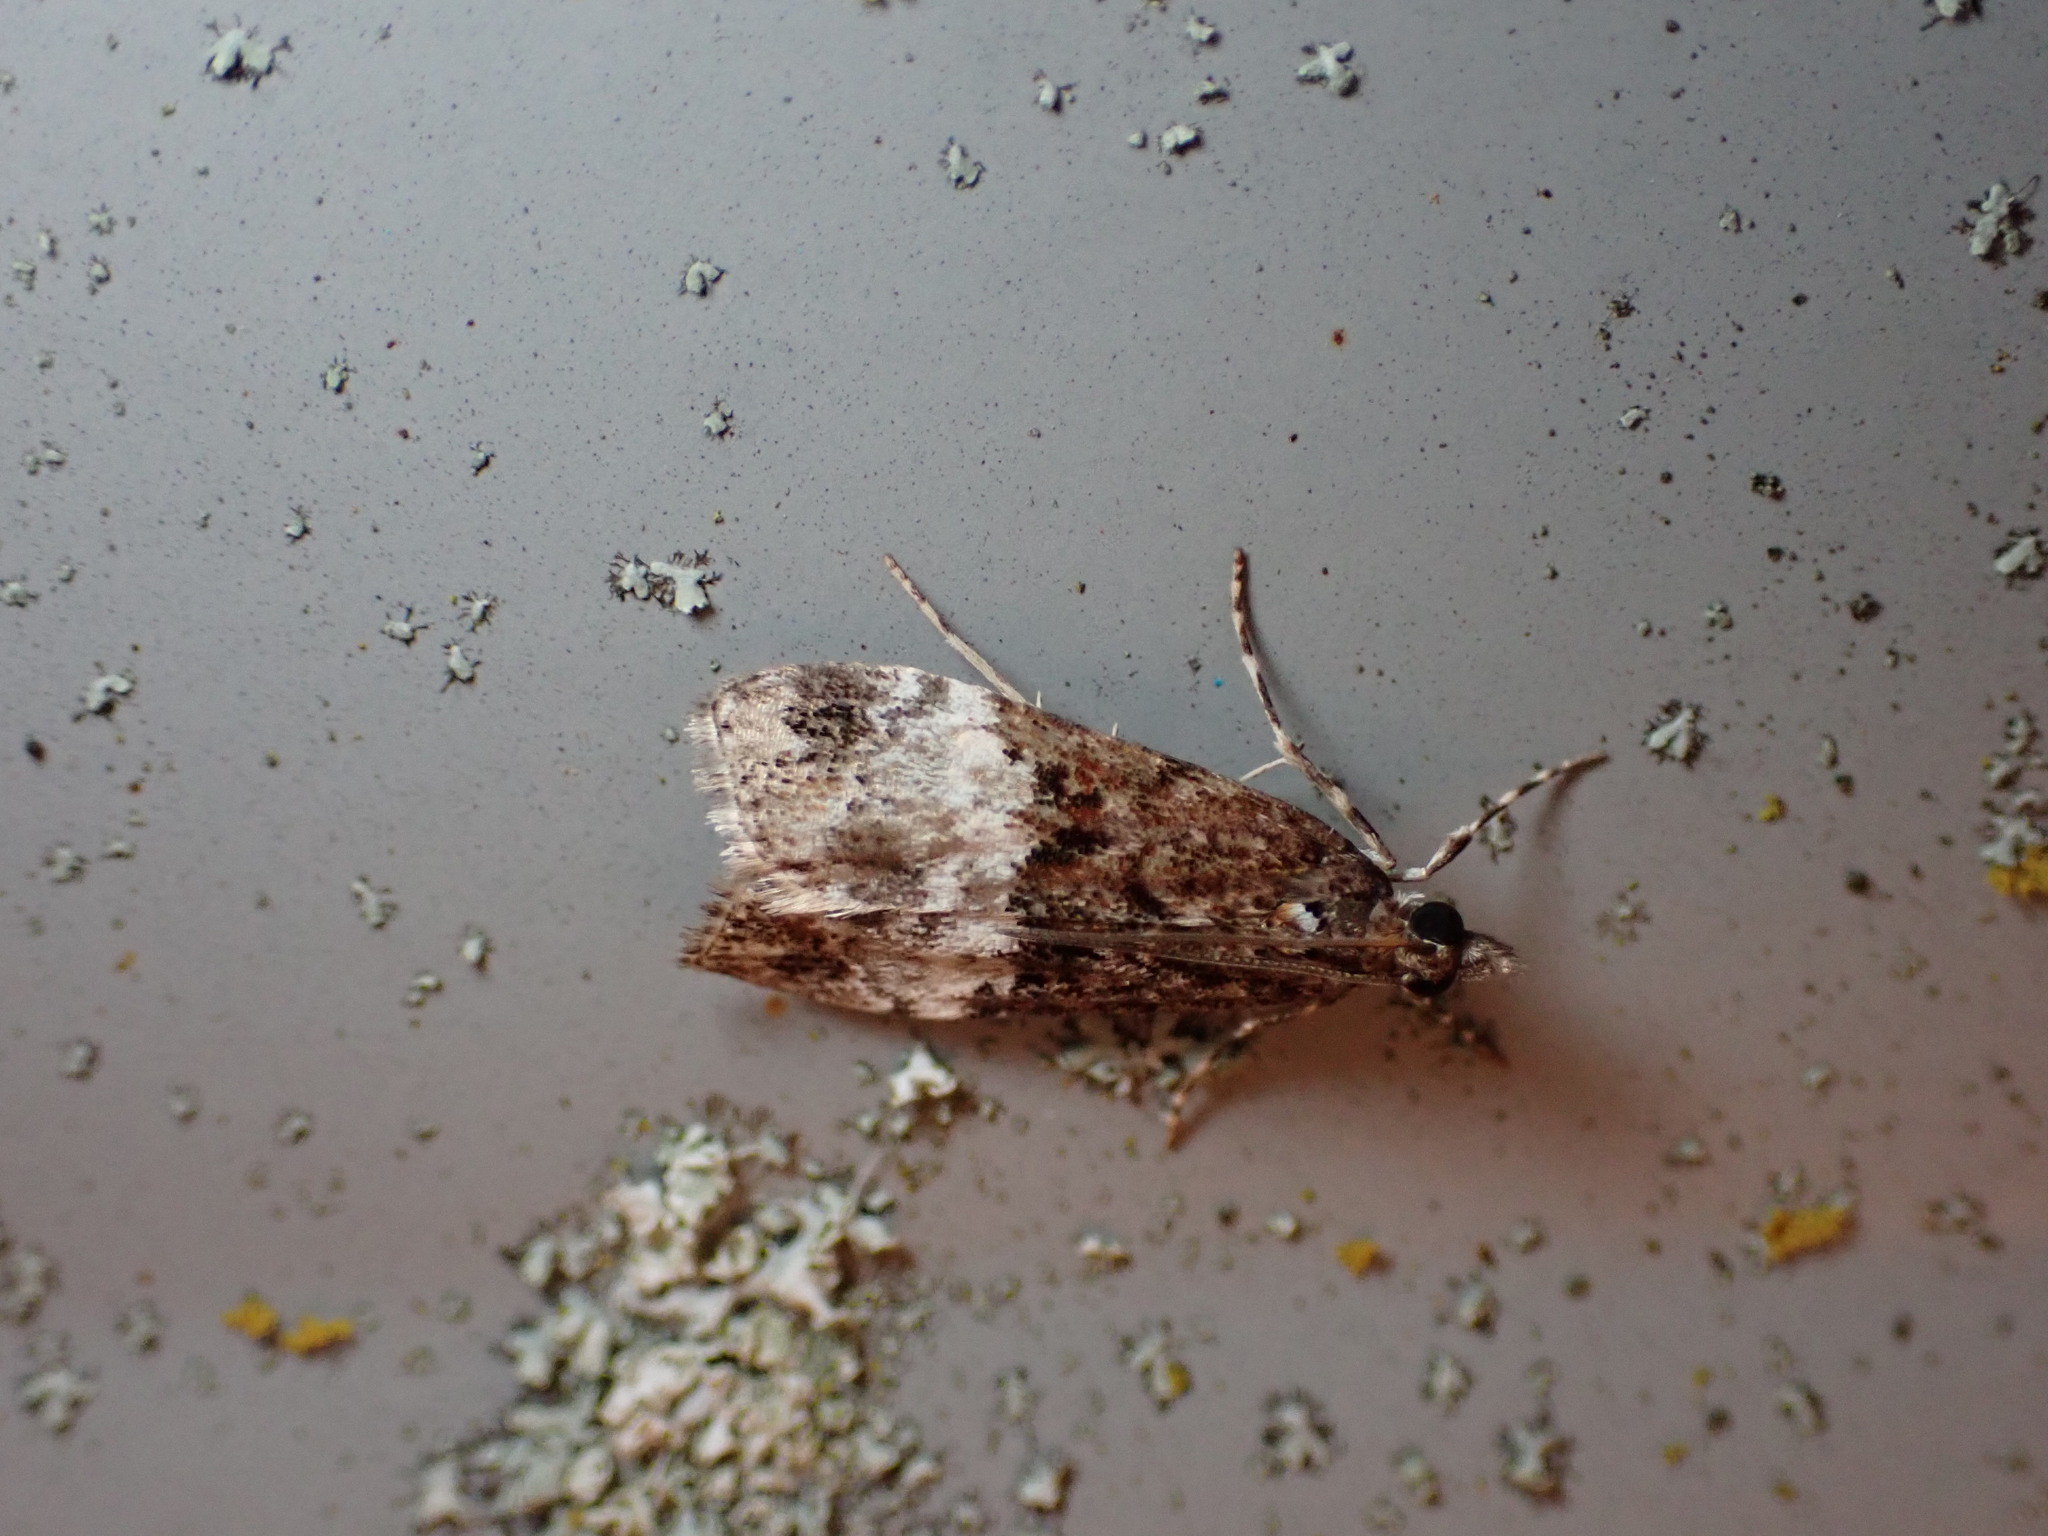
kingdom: Animalia
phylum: Arthropoda
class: Insecta
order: Lepidoptera
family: Crambidae
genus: Scoparia
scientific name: Scoparia minusculalis
